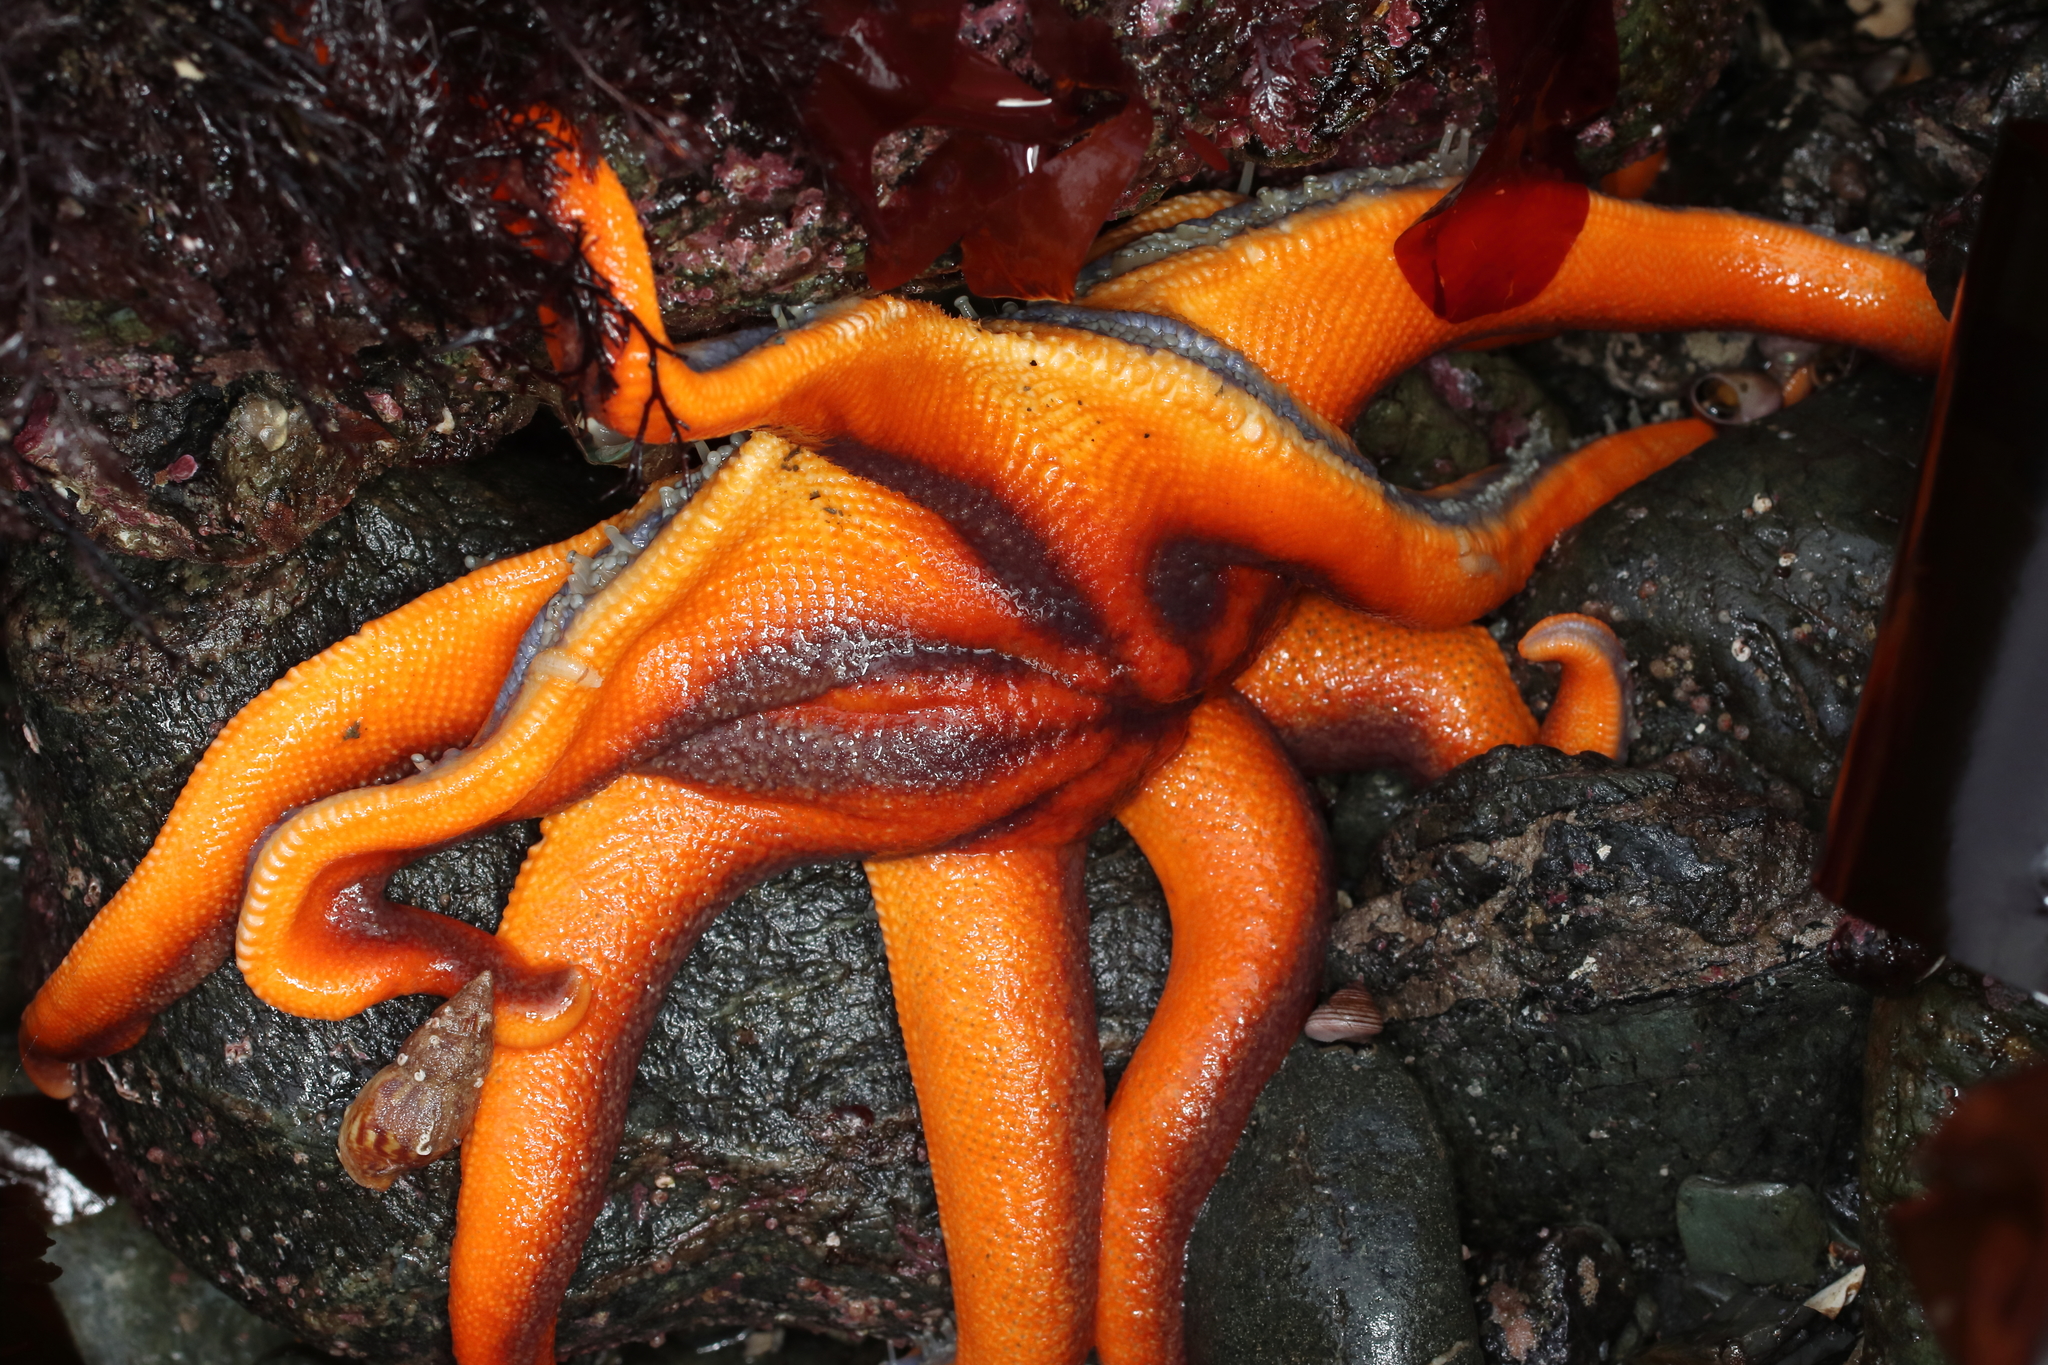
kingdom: Animalia
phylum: Echinodermata
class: Asteroidea
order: Valvatida
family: Solasteridae
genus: Solaster
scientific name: Solaster stimpsoni
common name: Orange sun star
